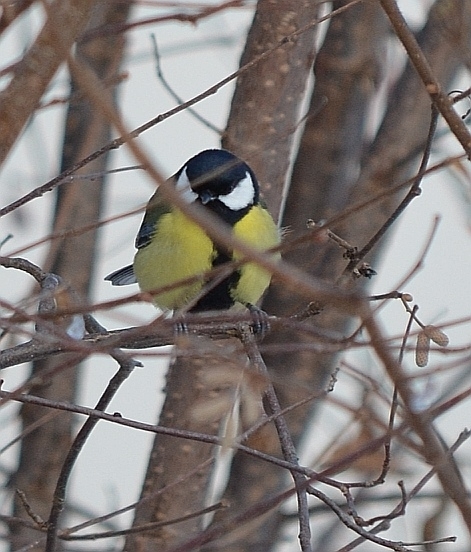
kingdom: Animalia
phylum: Chordata
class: Aves
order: Passeriformes
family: Paridae
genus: Parus
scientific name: Parus major
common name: Great tit
